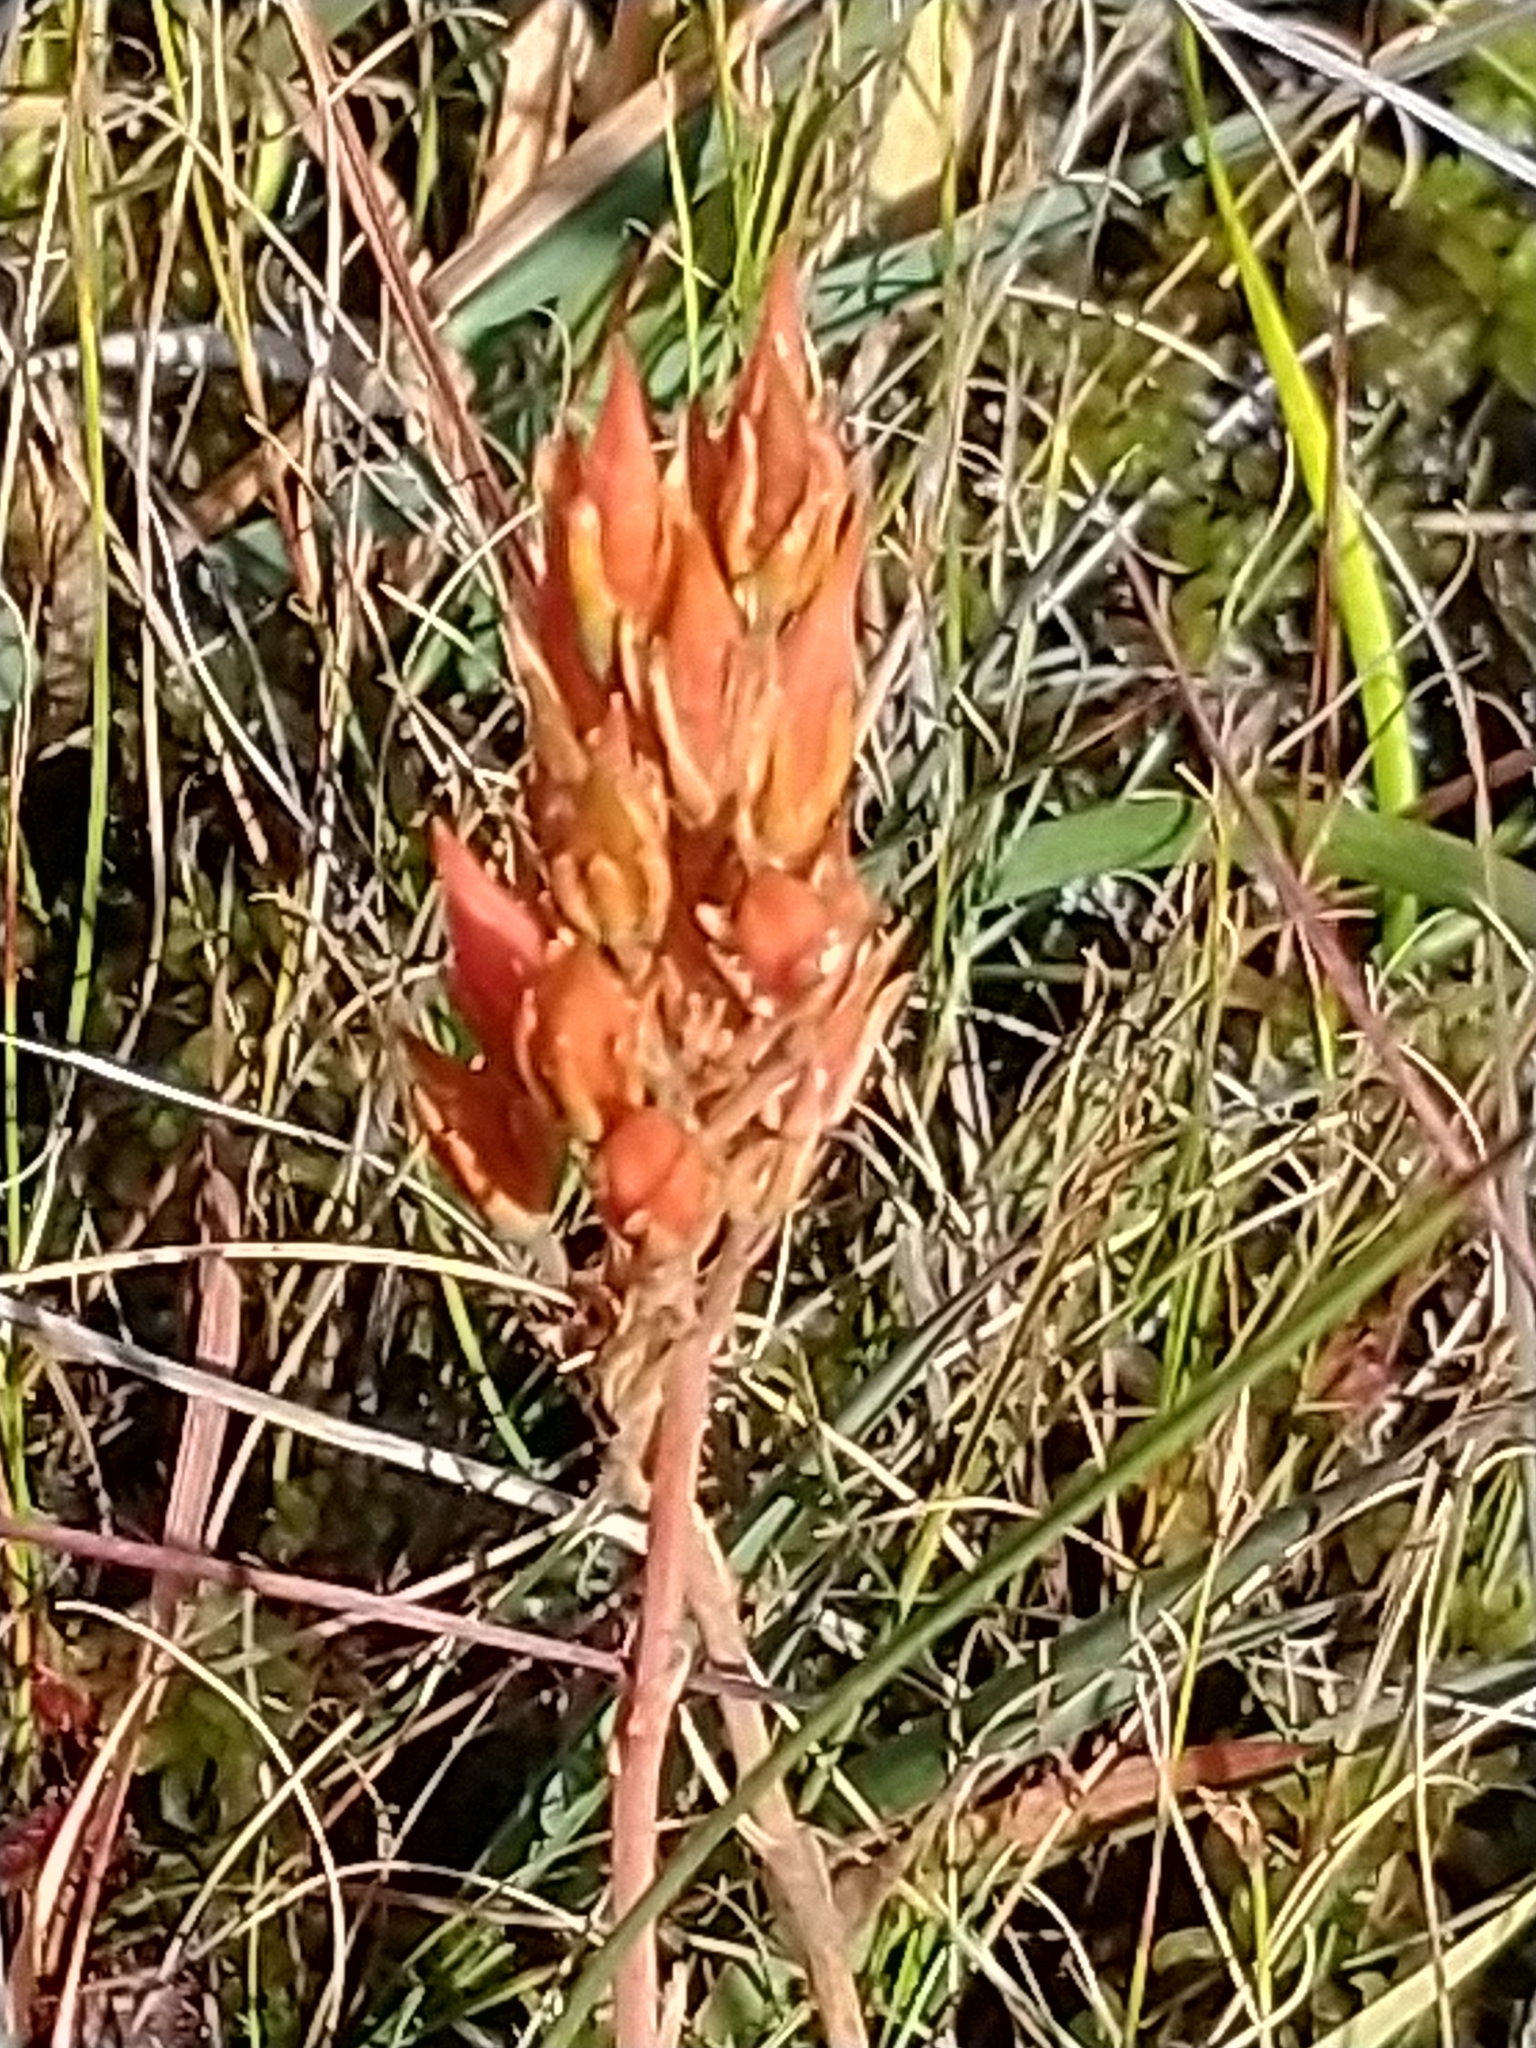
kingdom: Plantae
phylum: Tracheophyta
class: Liliopsida
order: Dioscoreales
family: Nartheciaceae
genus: Narthecium
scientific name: Narthecium ossifragum
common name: Bog asphodel
